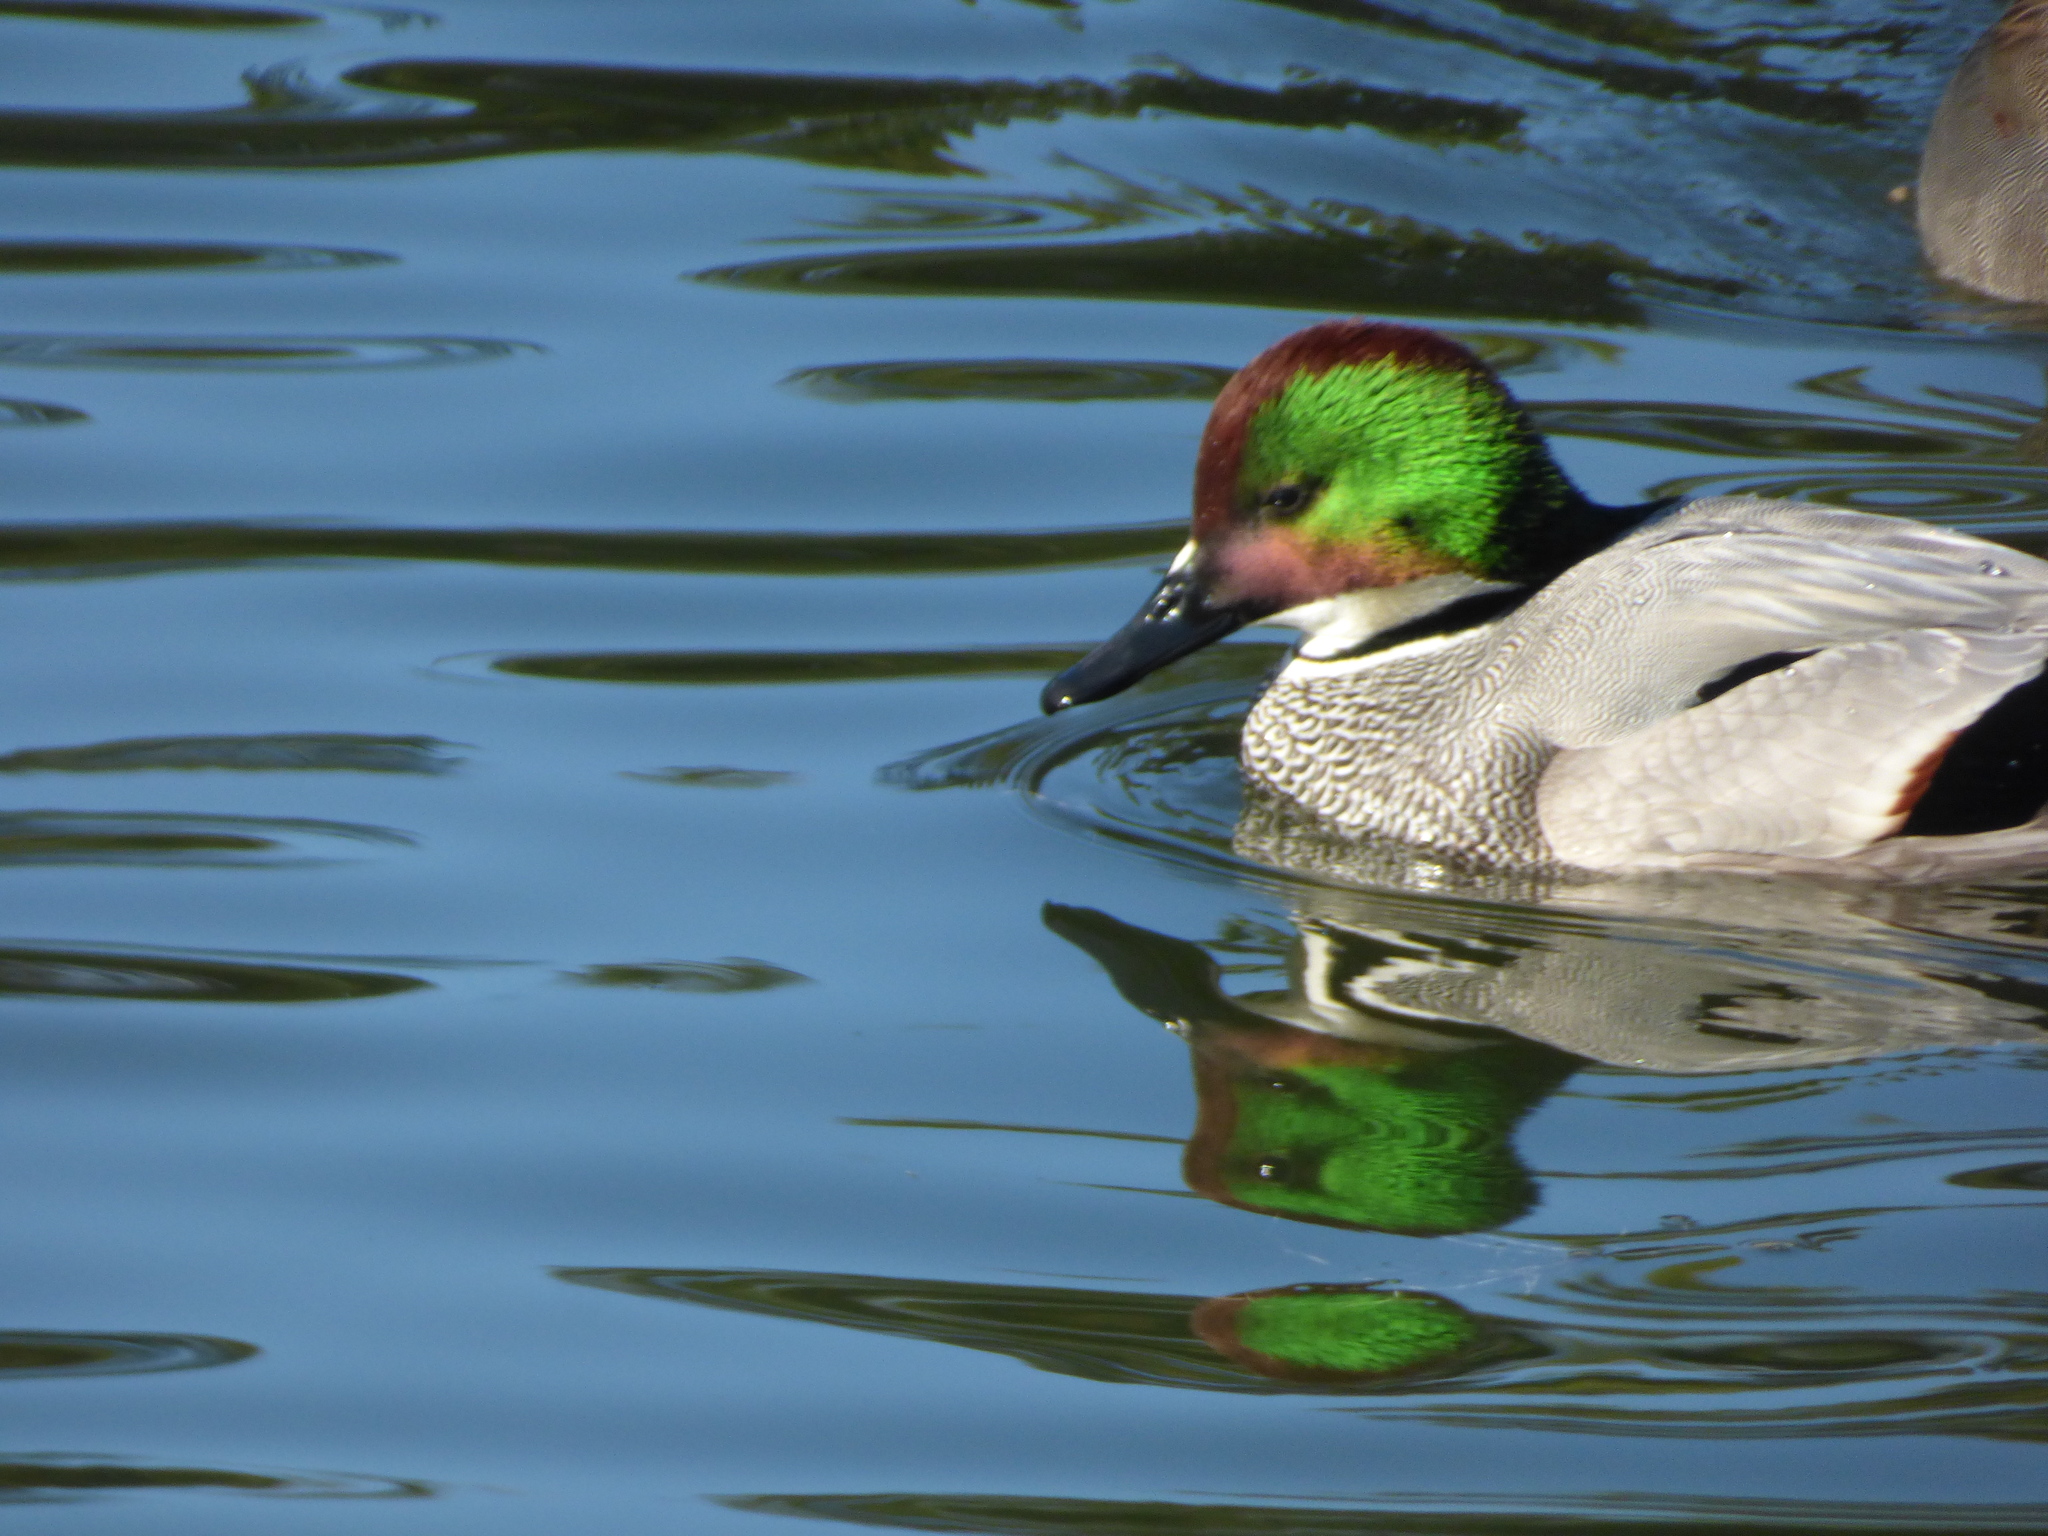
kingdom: Animalia
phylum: Chordata
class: Aves
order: Anseriformes
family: Anatidae
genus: Mareca
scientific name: Mareca falcata
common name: Falcated duck
